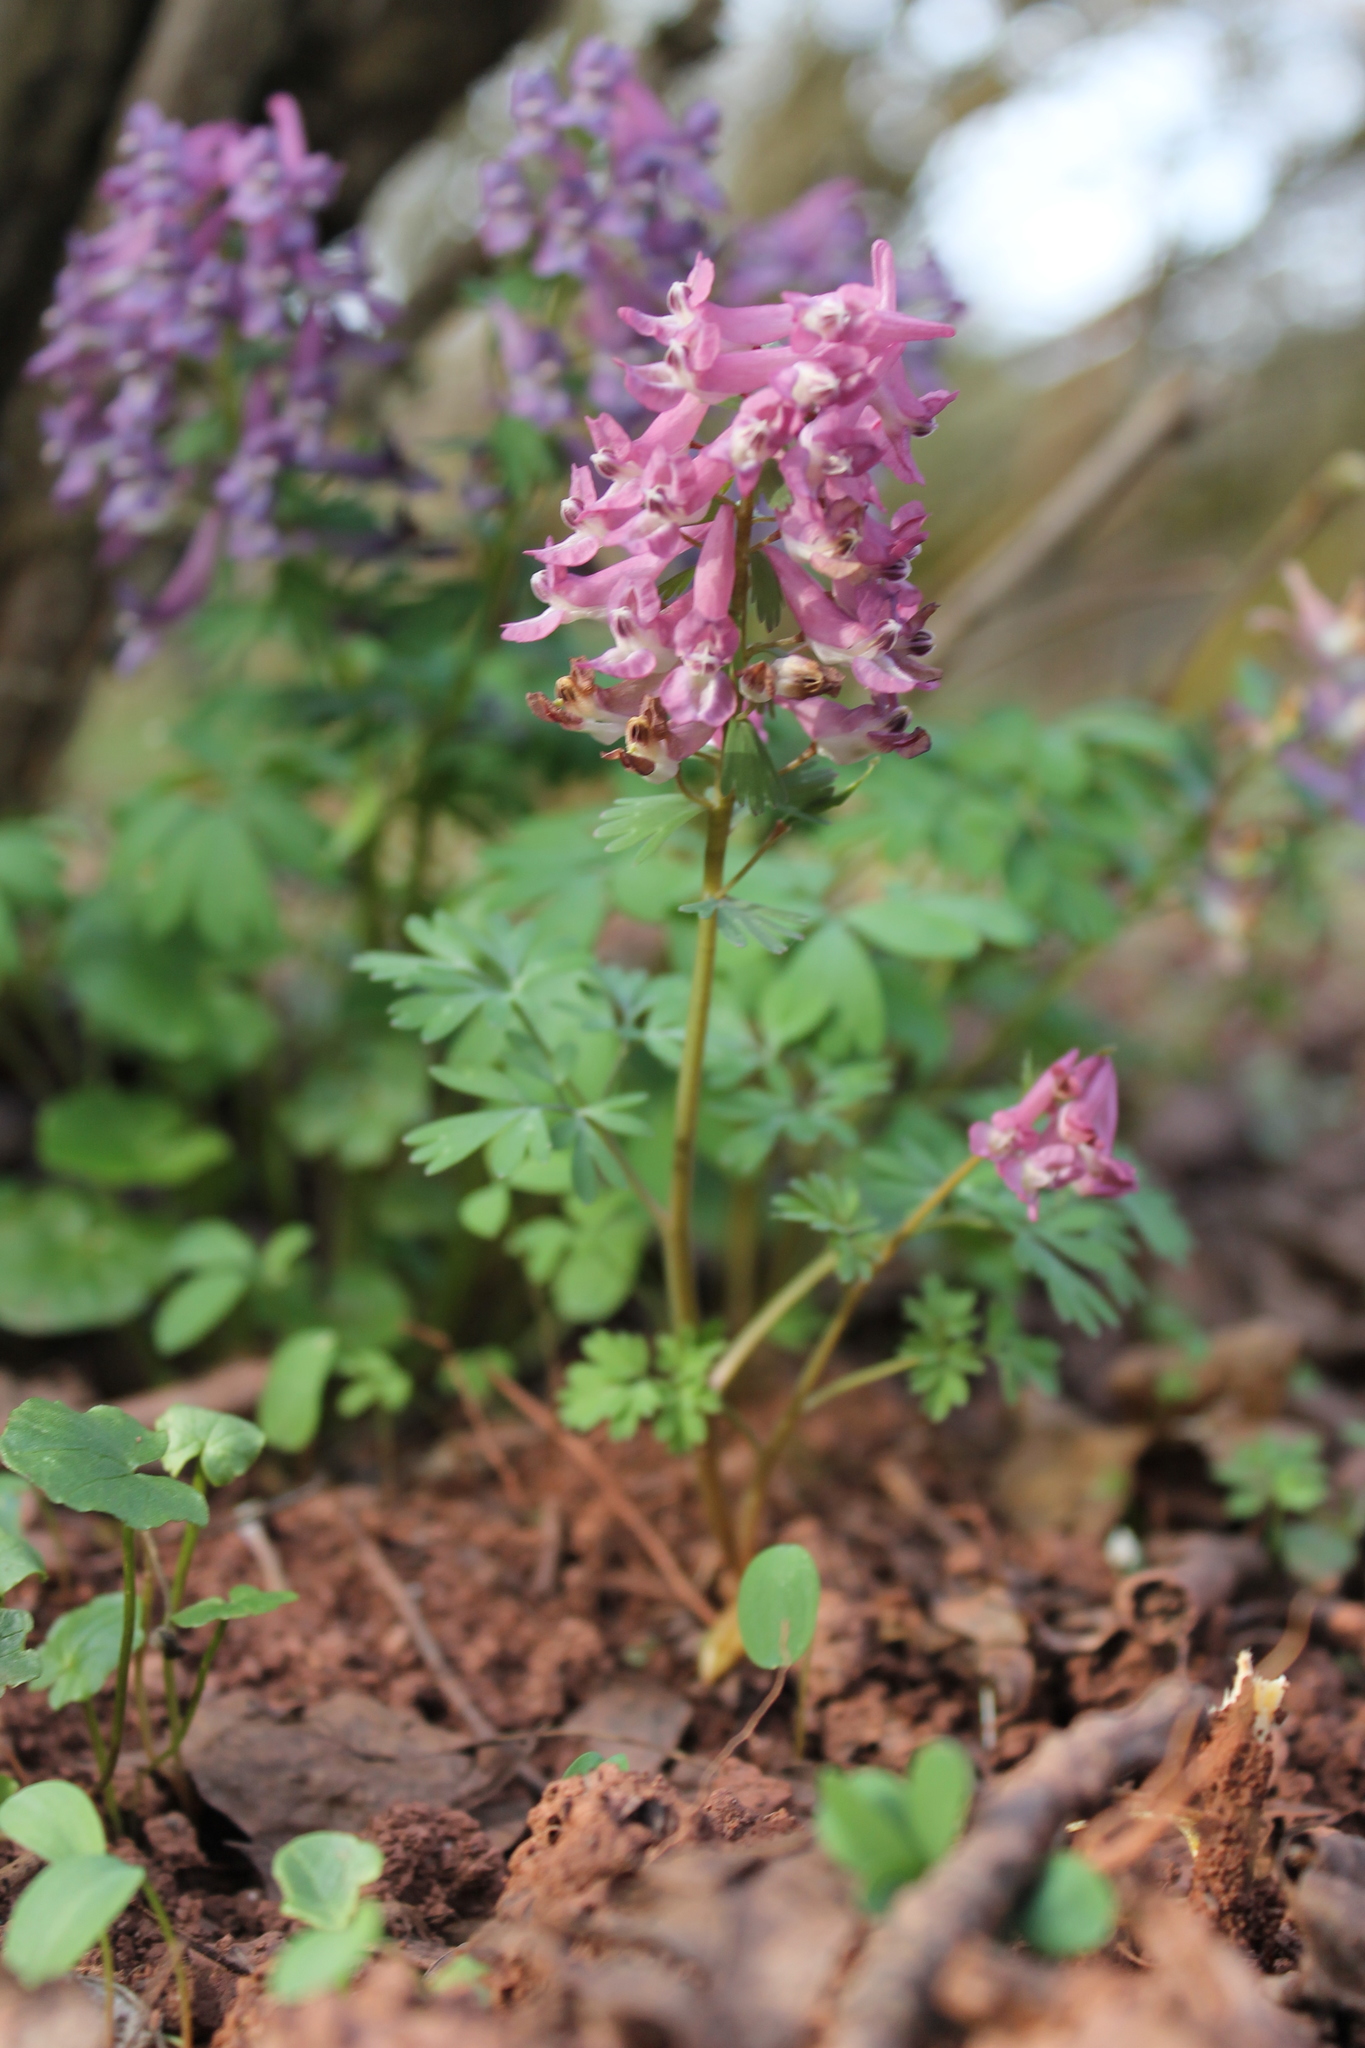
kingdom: Plantae
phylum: Tracheophyta
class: Magnoliopsida
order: Ranunculales
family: Papaveraceae
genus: Corydalis
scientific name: Corydalis solida
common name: Bird-in-a-bush
